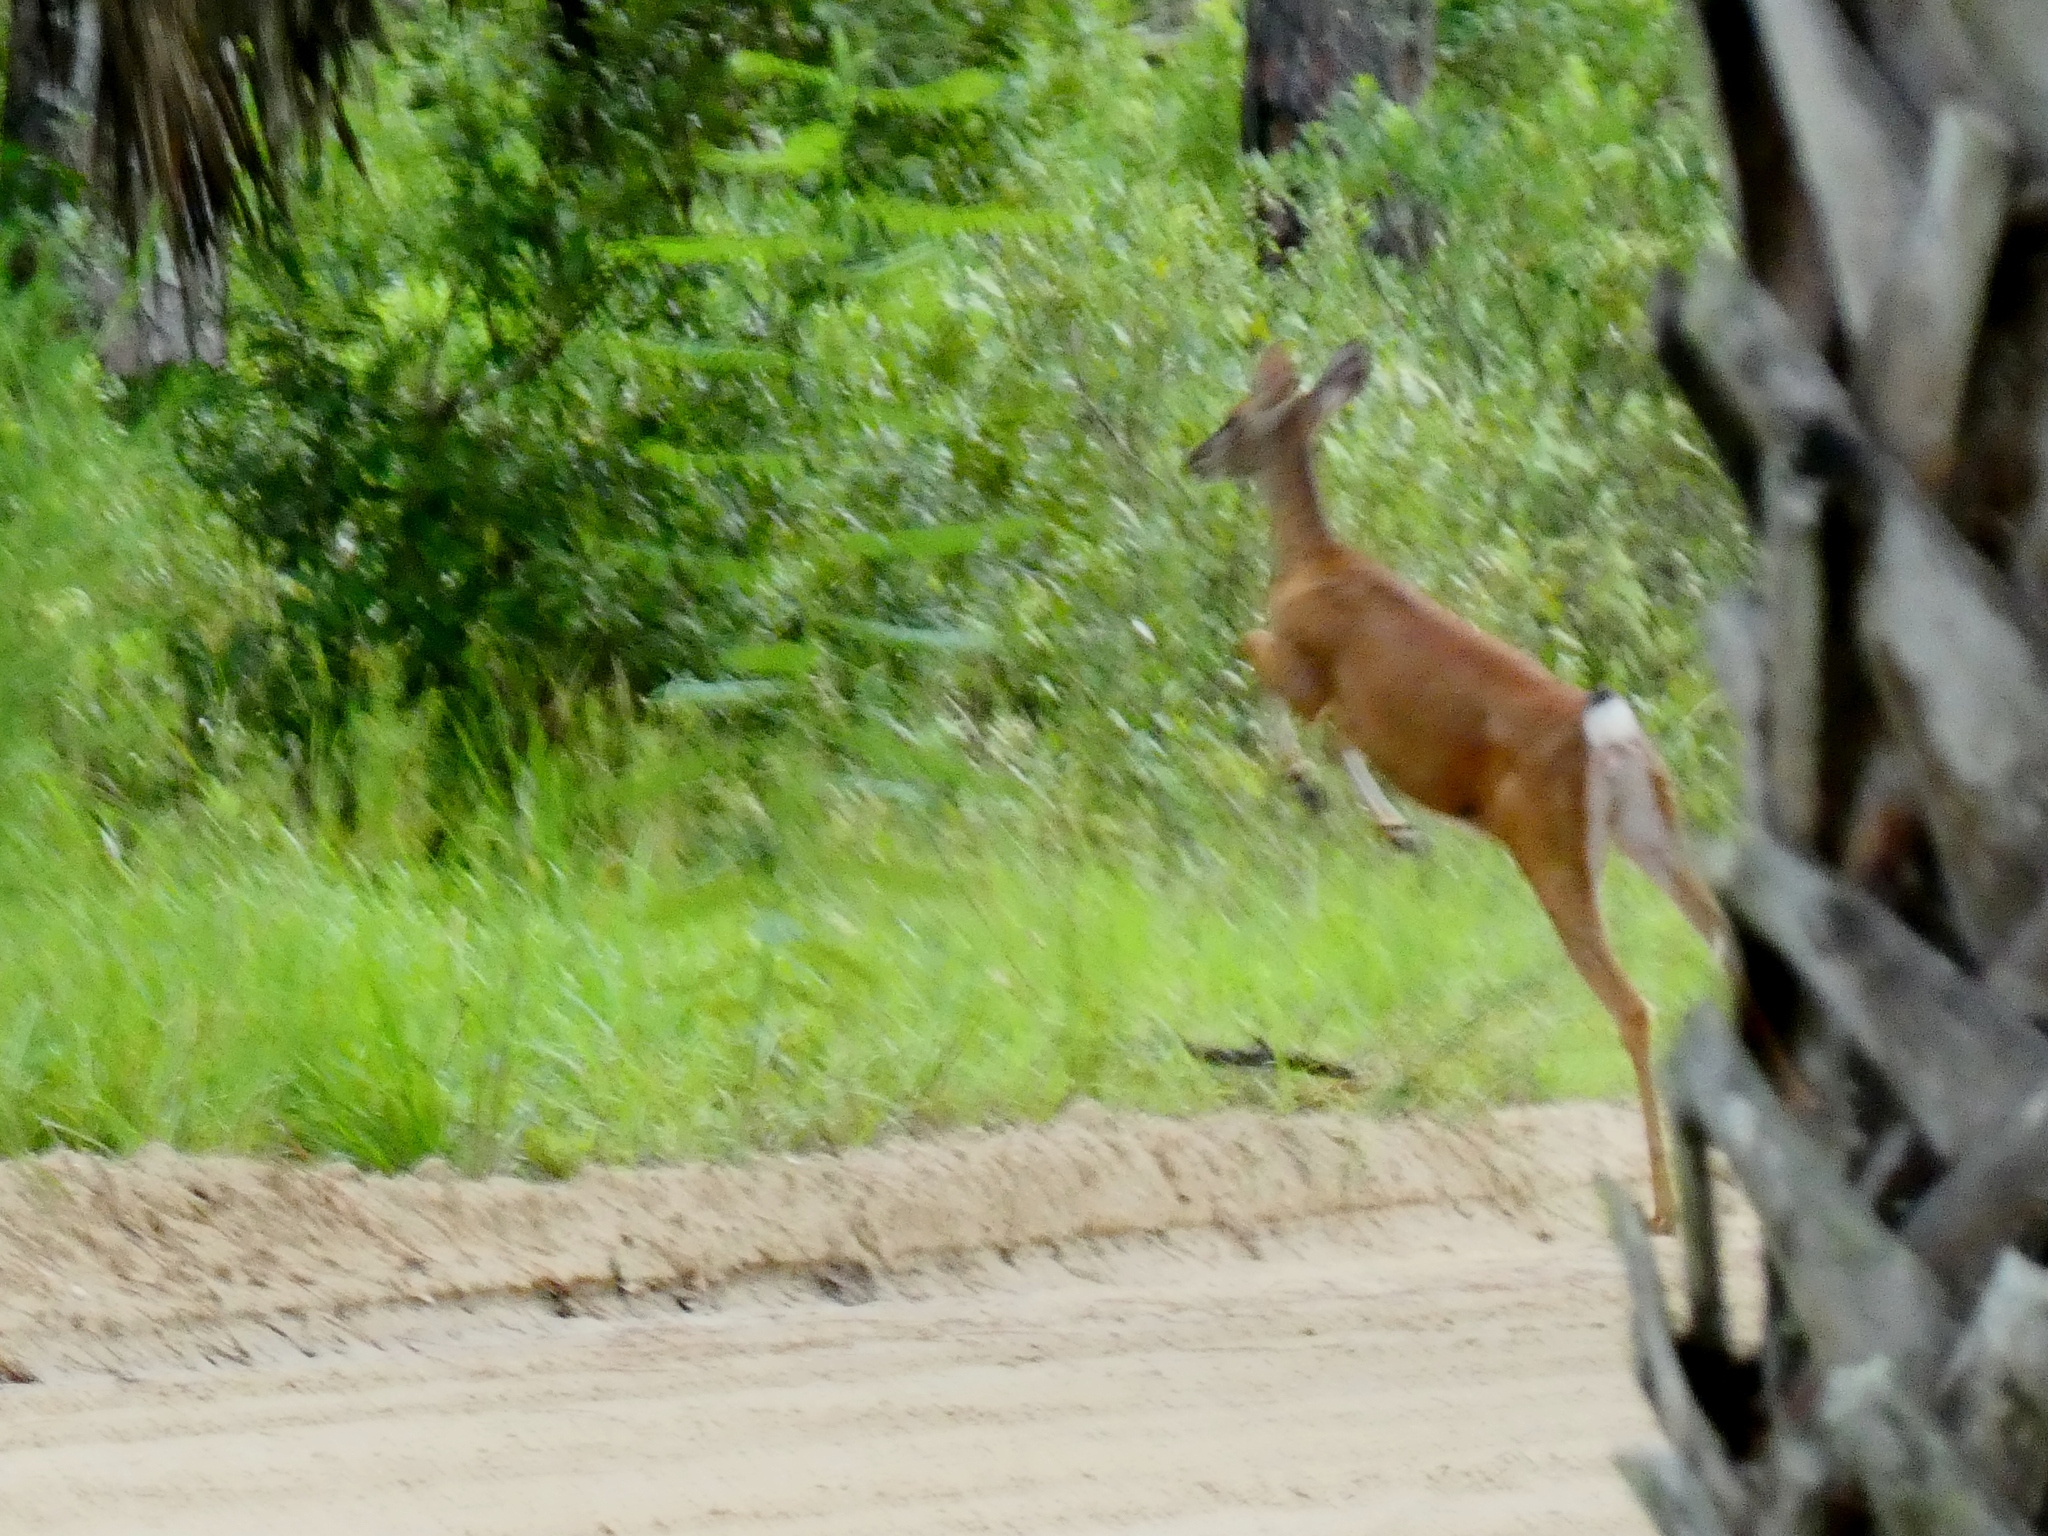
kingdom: Animalia
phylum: Chordata
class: Mammalia
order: Artiodactyla
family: Cervidae
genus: Odocoileus
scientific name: Odocoileus virginianus
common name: White-tailed deer
